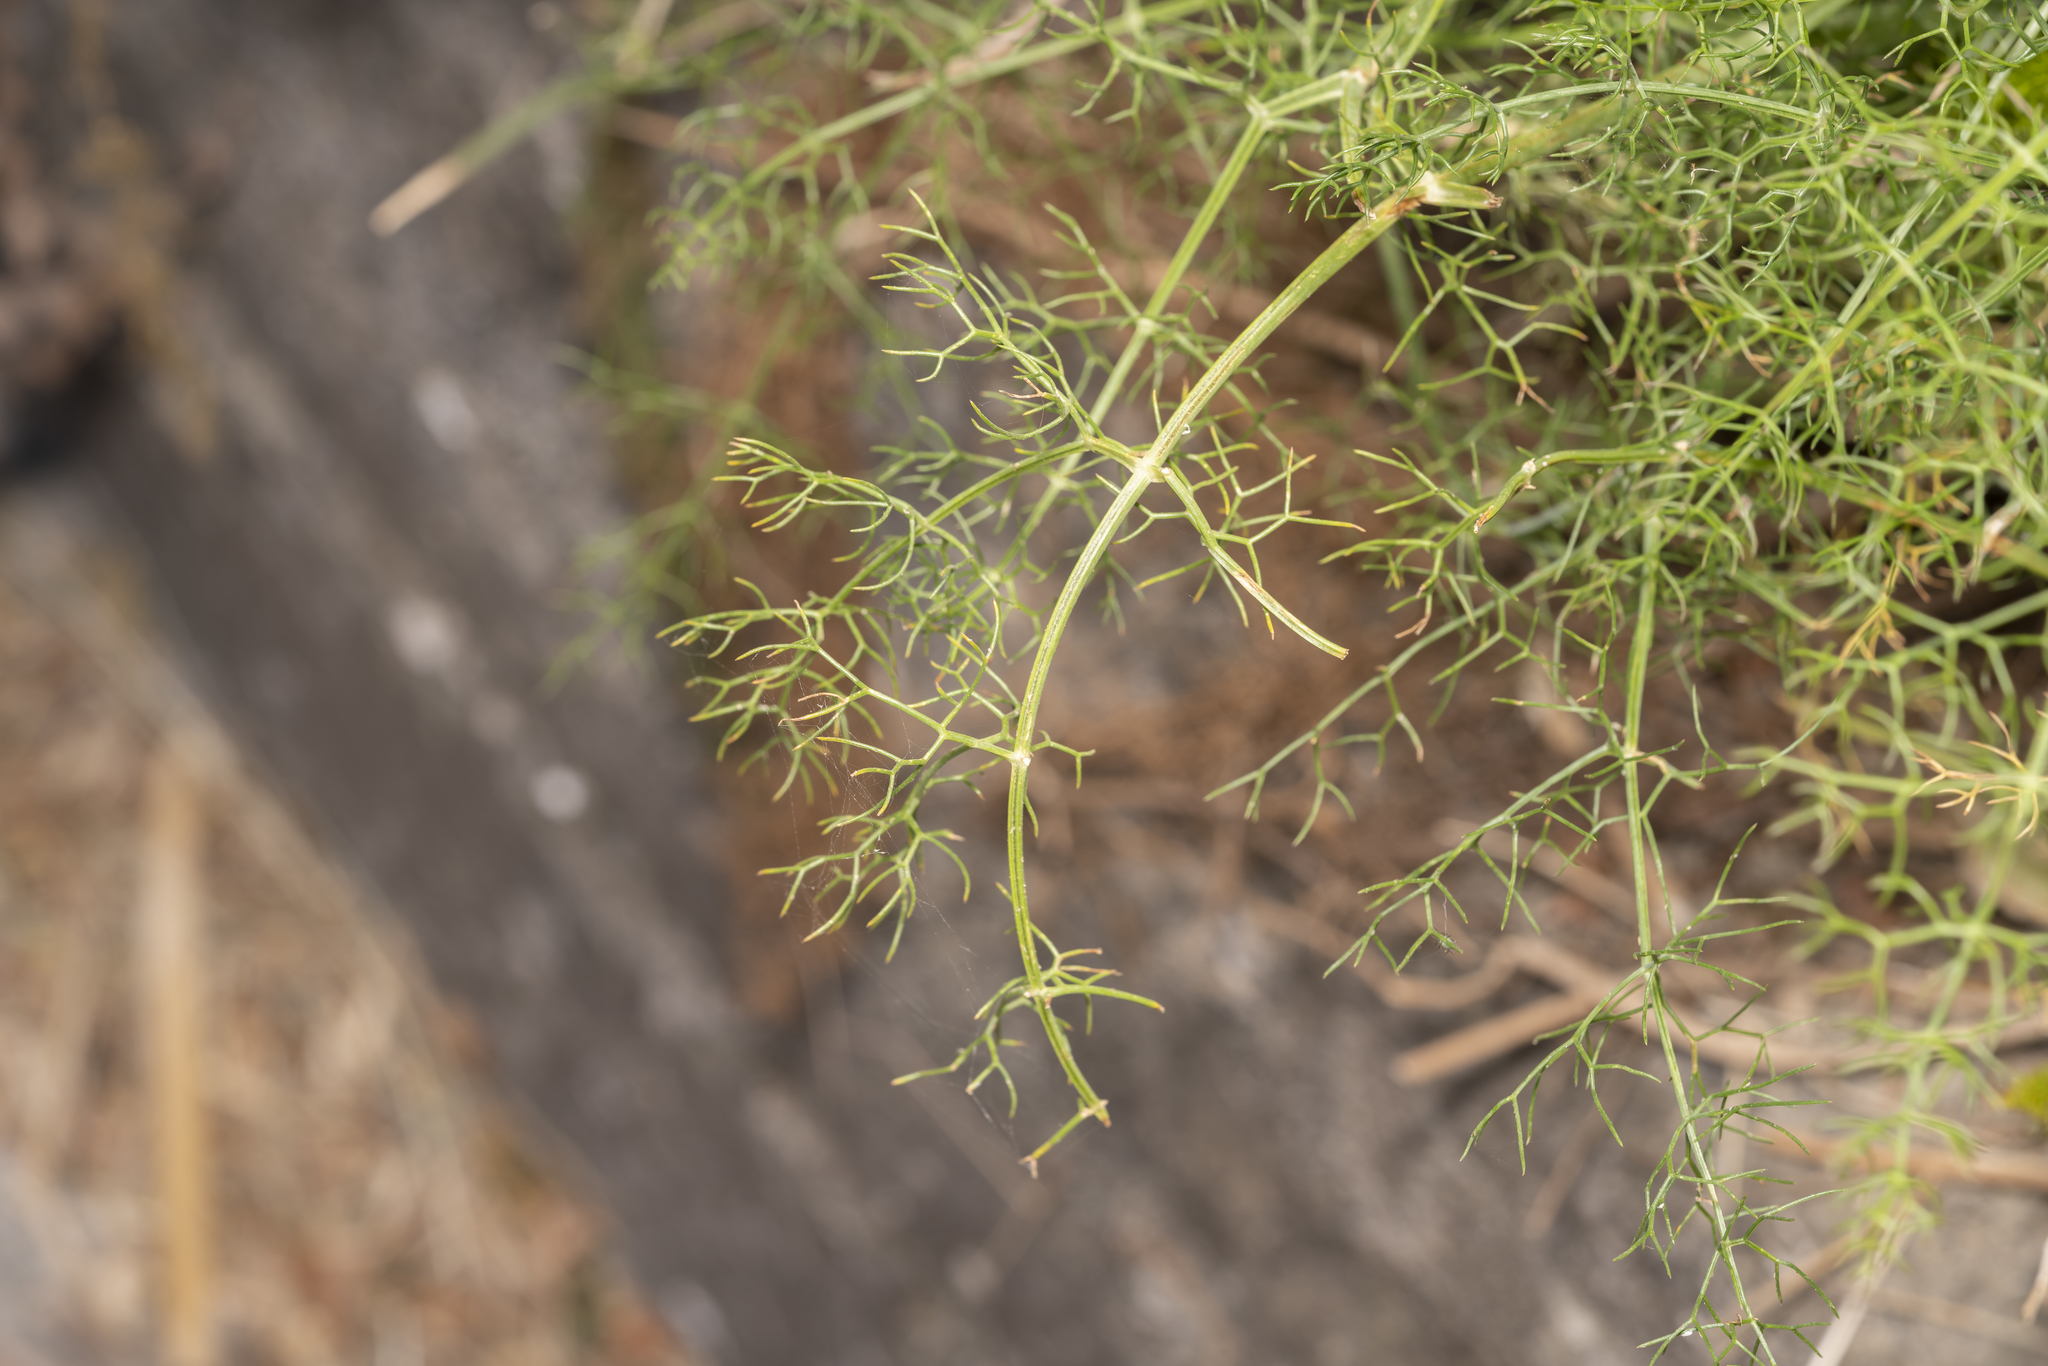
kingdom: Plantae
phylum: Tracheophyta
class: Magnoliopsida
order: Apiales
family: Apiaceae
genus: Foeniculum
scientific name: Foeniculum vulgare
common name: Fennel
